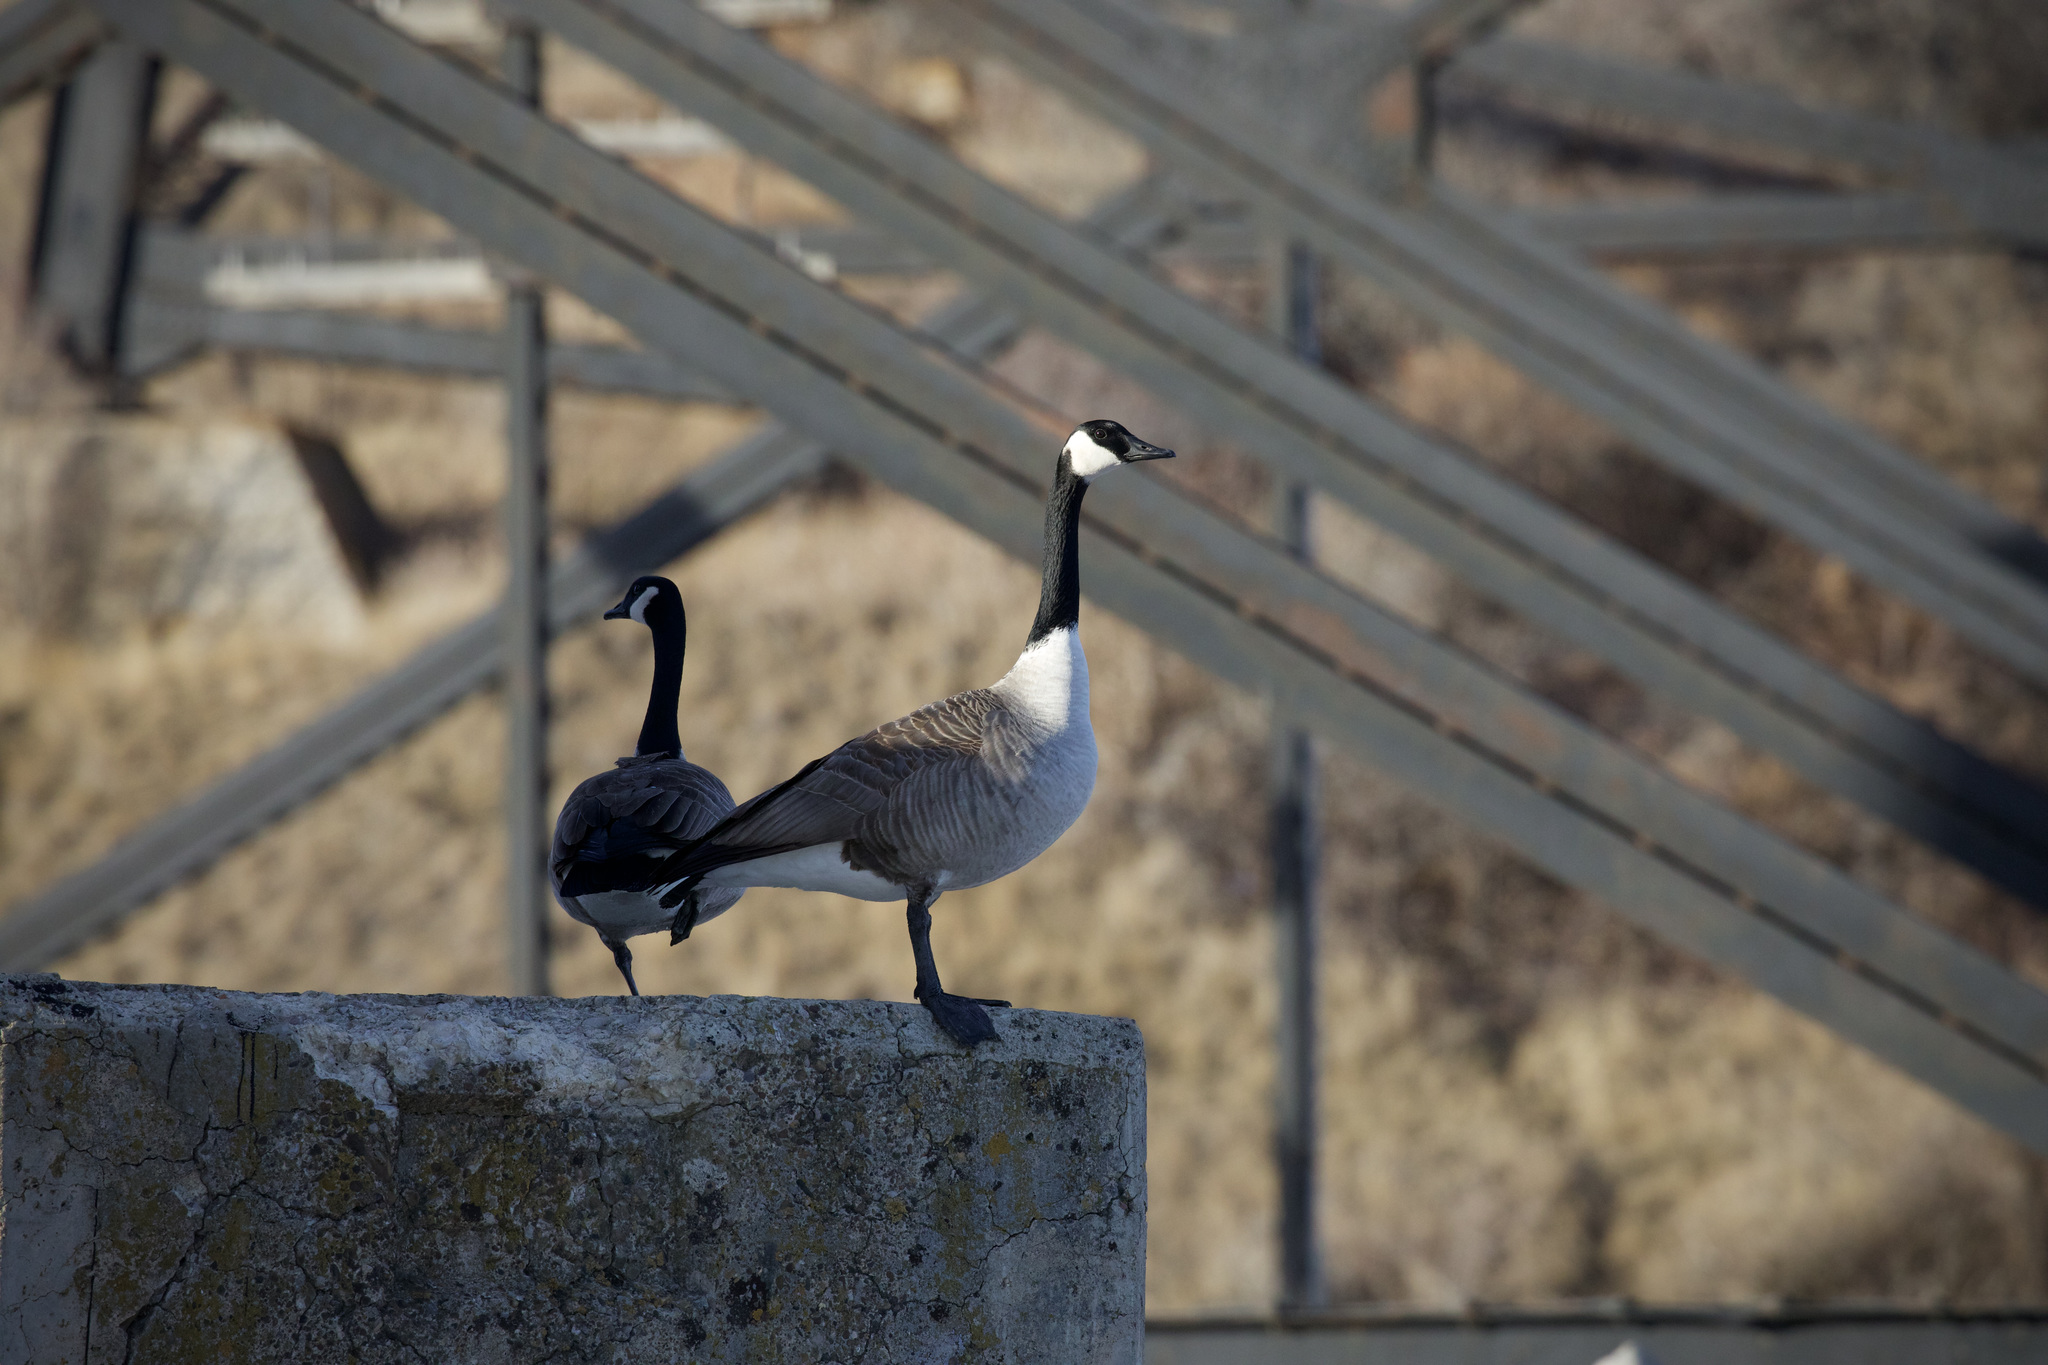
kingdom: Animalia
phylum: Chordata
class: Aves
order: Anseriformes
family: Anatidae
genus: Branta
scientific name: Branta canadensis
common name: Canada goose
